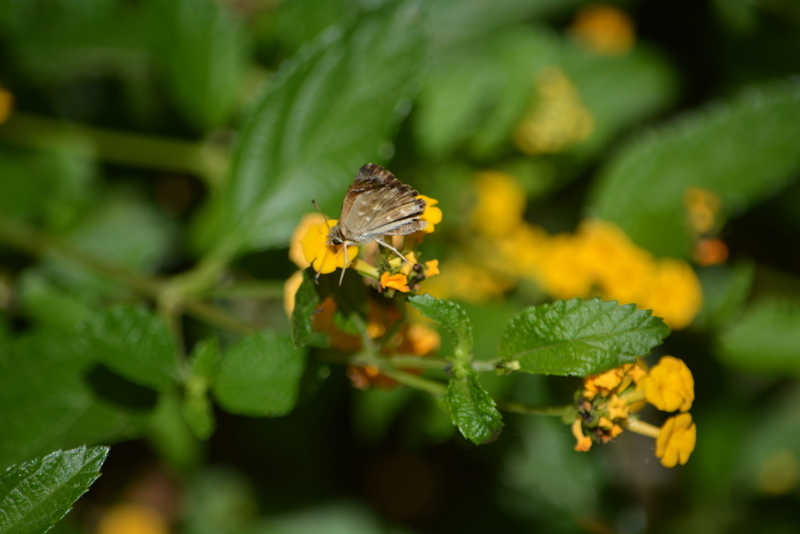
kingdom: Animalia
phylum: Arthropoda
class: Insecta
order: Lepidoptera
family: Hesperiidae
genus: Carcharodus
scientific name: Carcharodus alceae
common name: Mallow skipper
